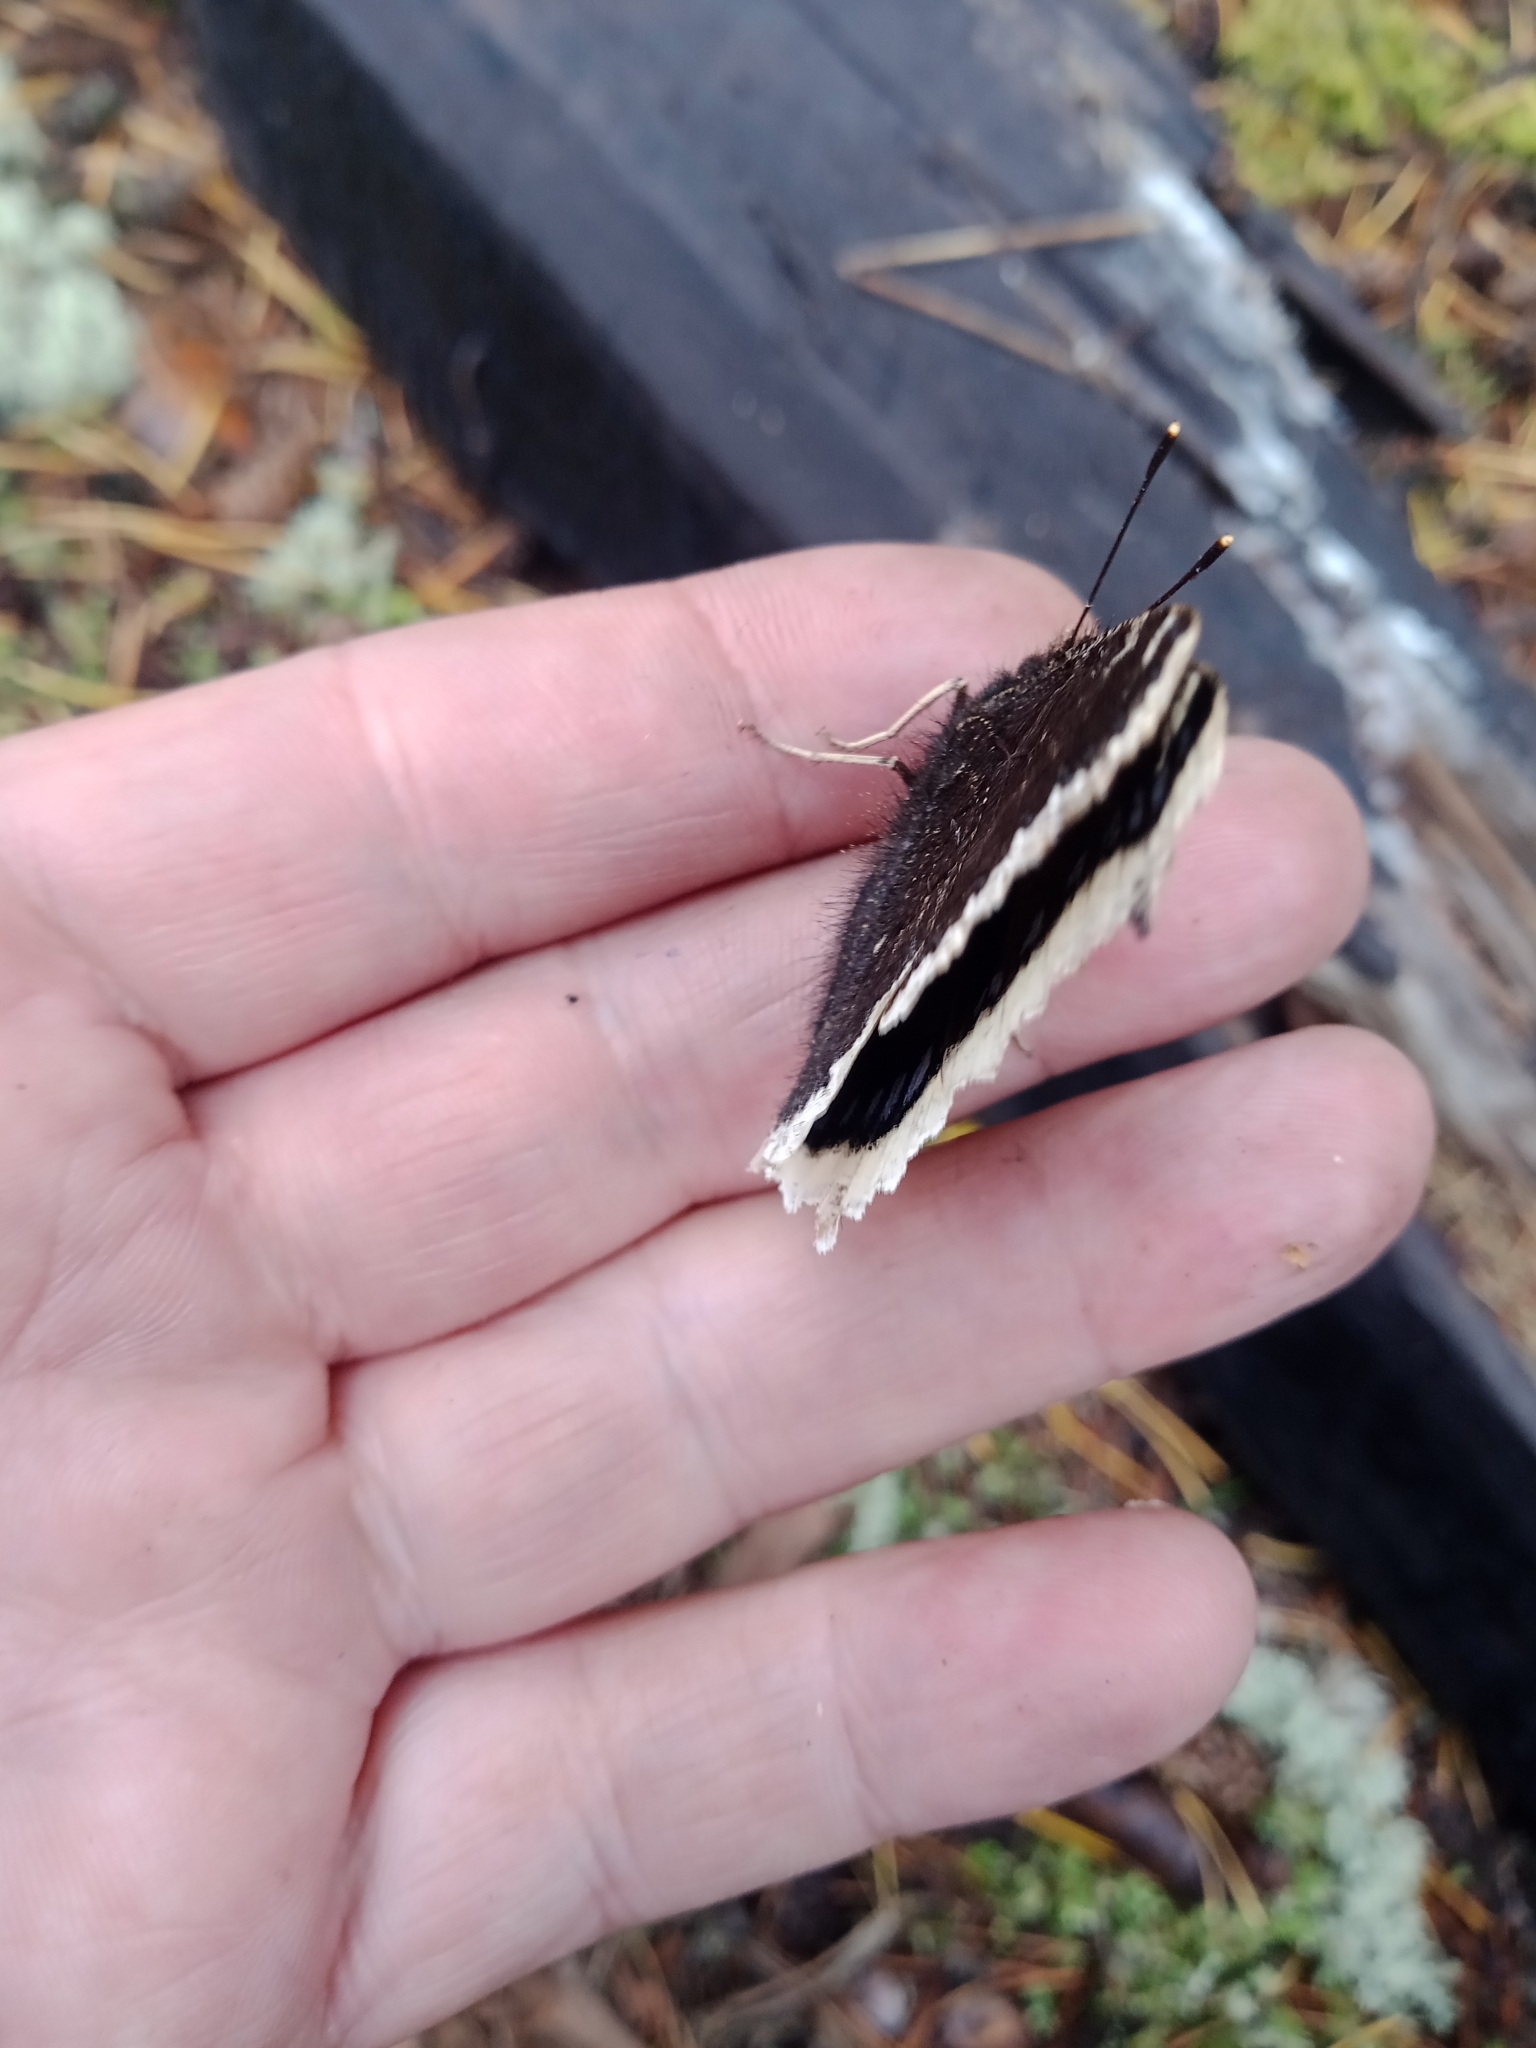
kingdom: Animalia
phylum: Arthropoda
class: Insecta
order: Lepidoptera
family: Nymphalidae
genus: Nymphalis
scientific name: Nymphalis antiopa
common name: Camberwell beauty
